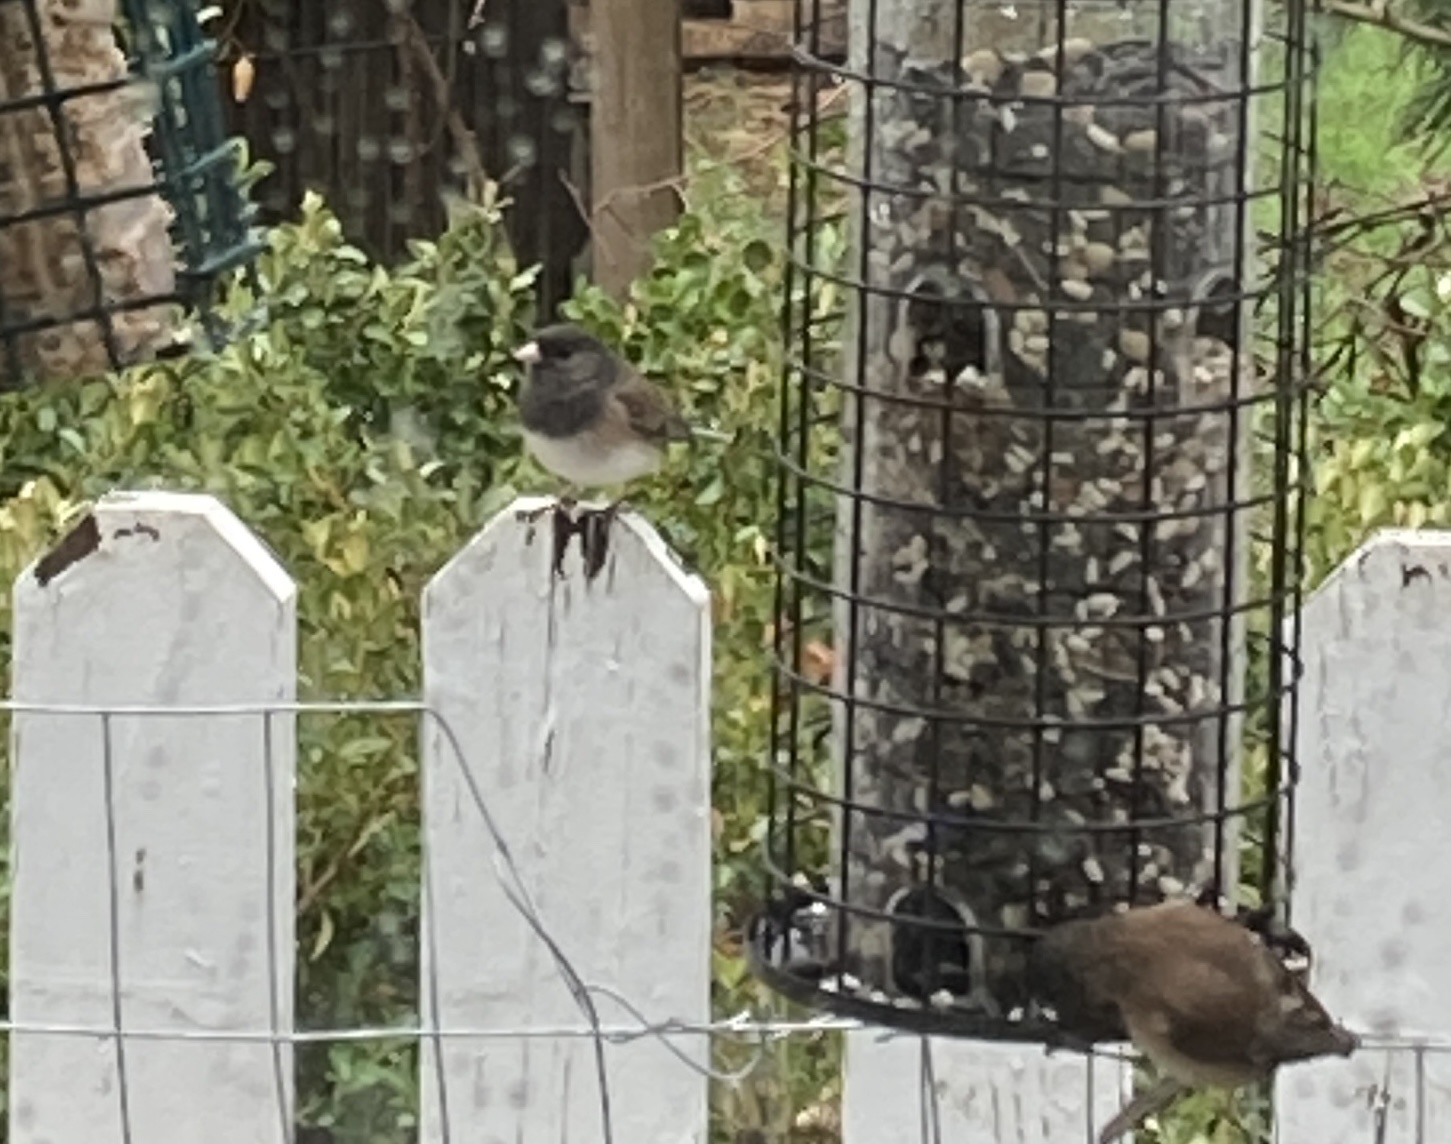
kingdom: Animalia
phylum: Chordata
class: Aves
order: Passeriformes
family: Passerellidae
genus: Junco
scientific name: Junco hyemalis
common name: Dark-eyed junco
